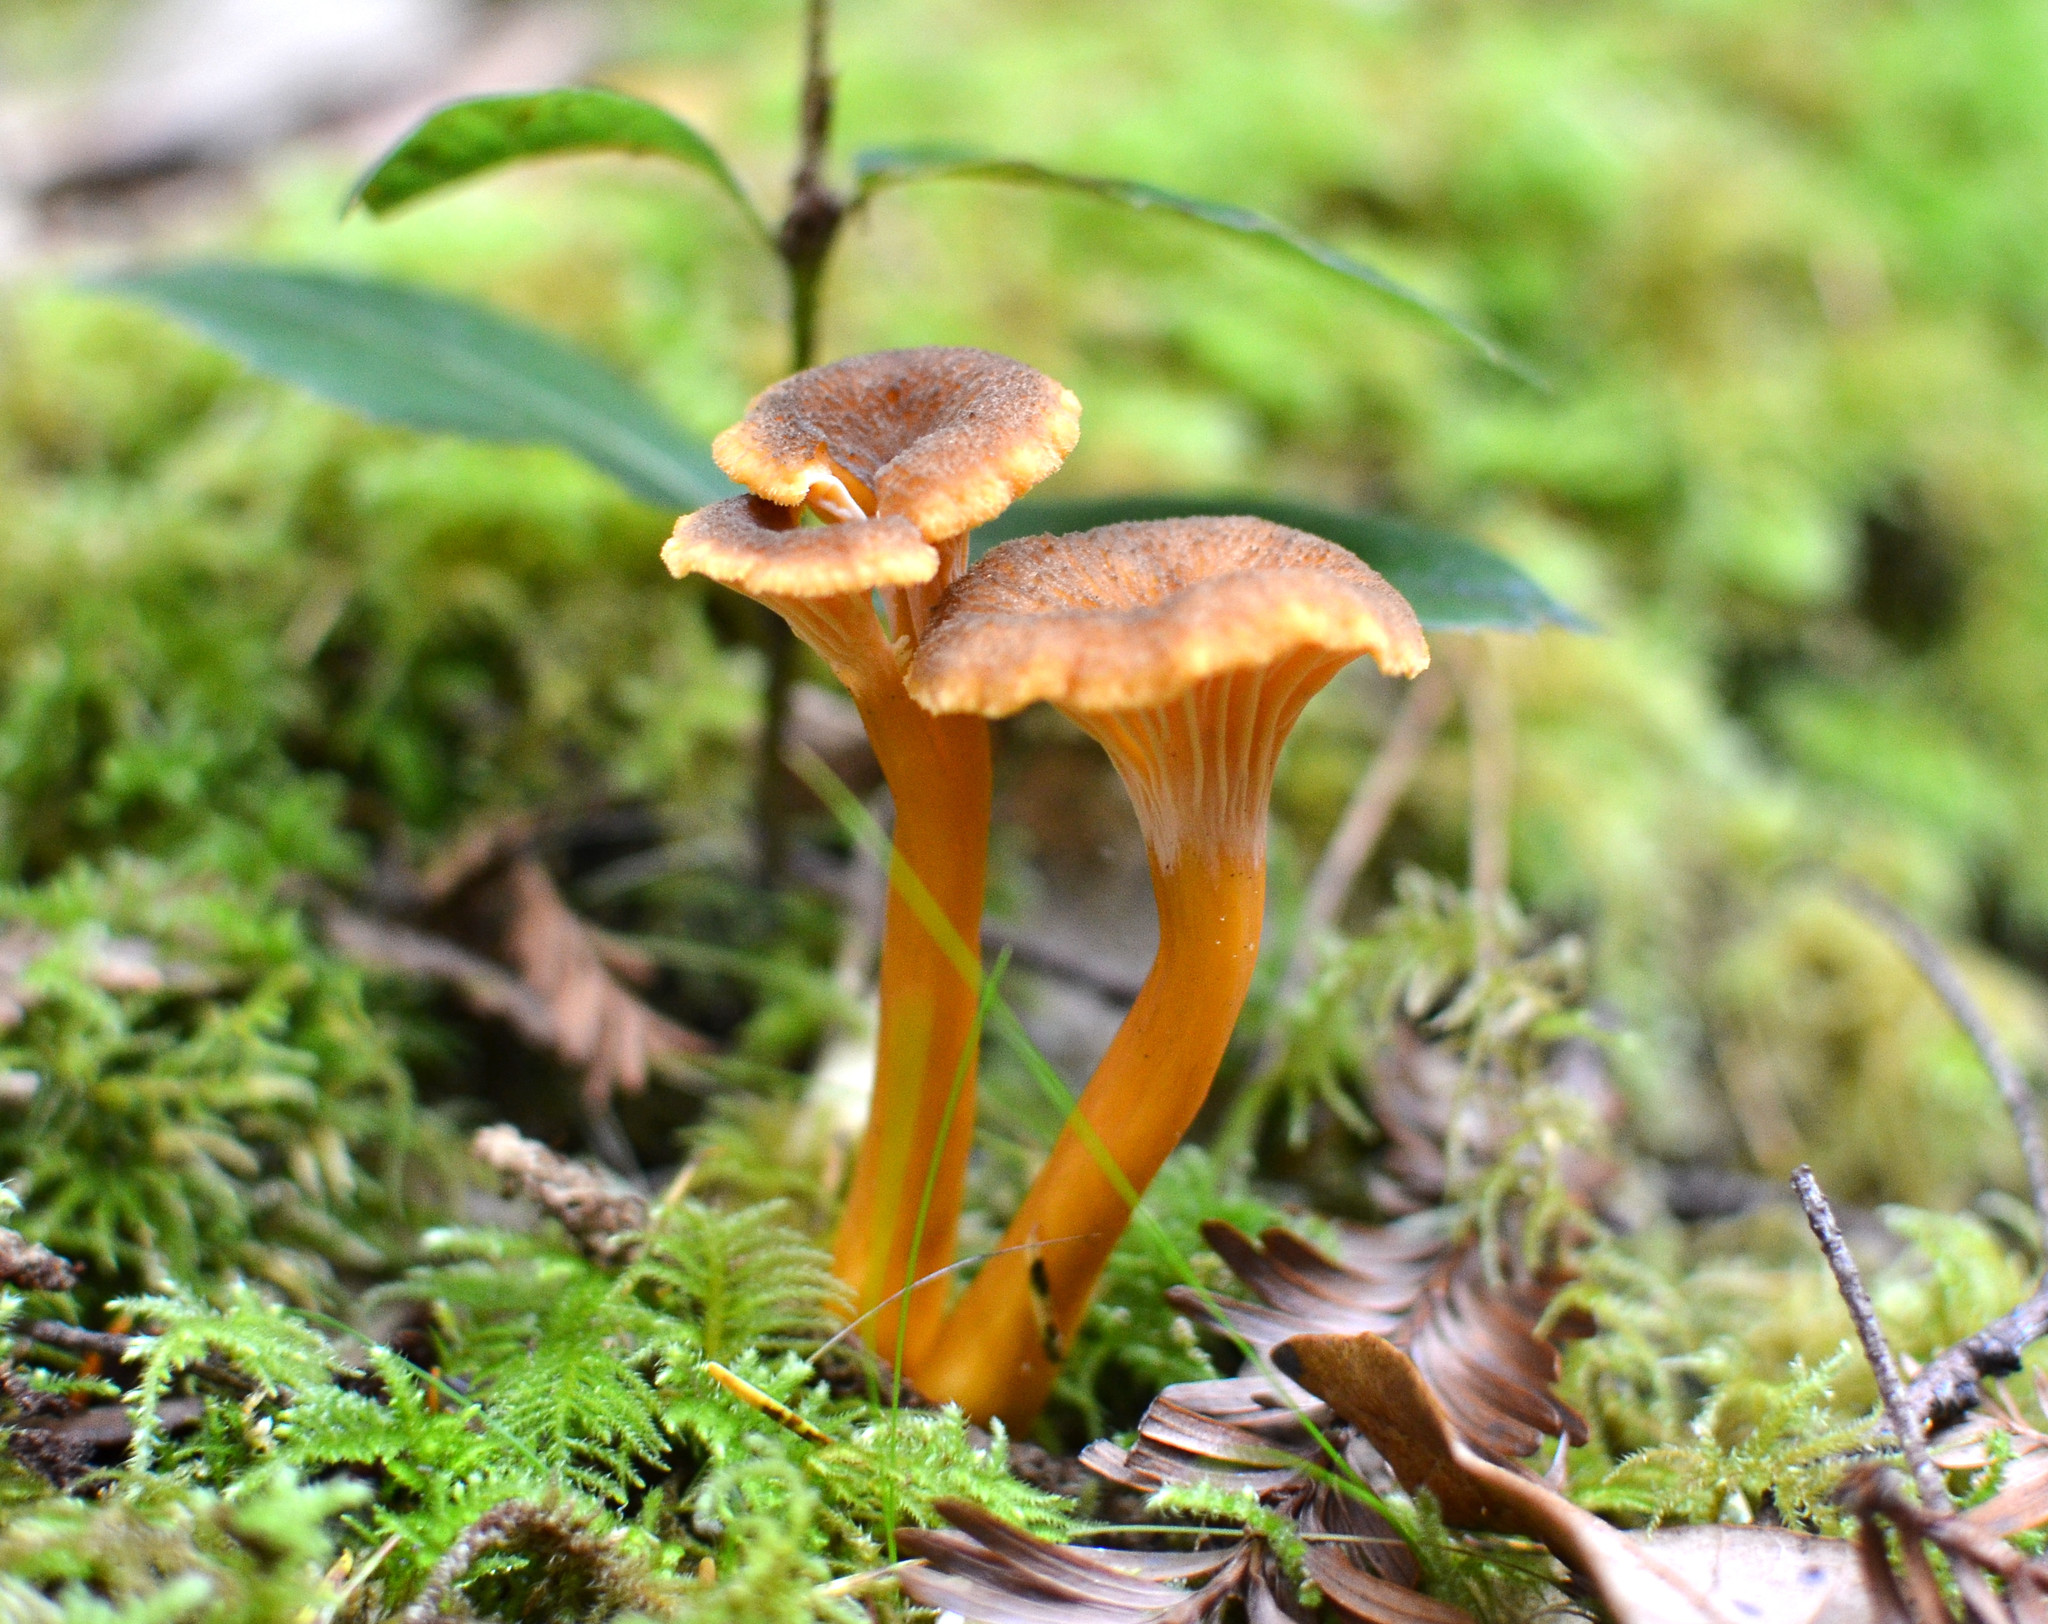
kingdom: Fungi
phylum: Basidiomycota
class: Agaricomycetes
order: Cantharellales
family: Hydnaceae
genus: Craterellus
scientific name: Craterellus tubaeformis
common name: Yellowfoot
